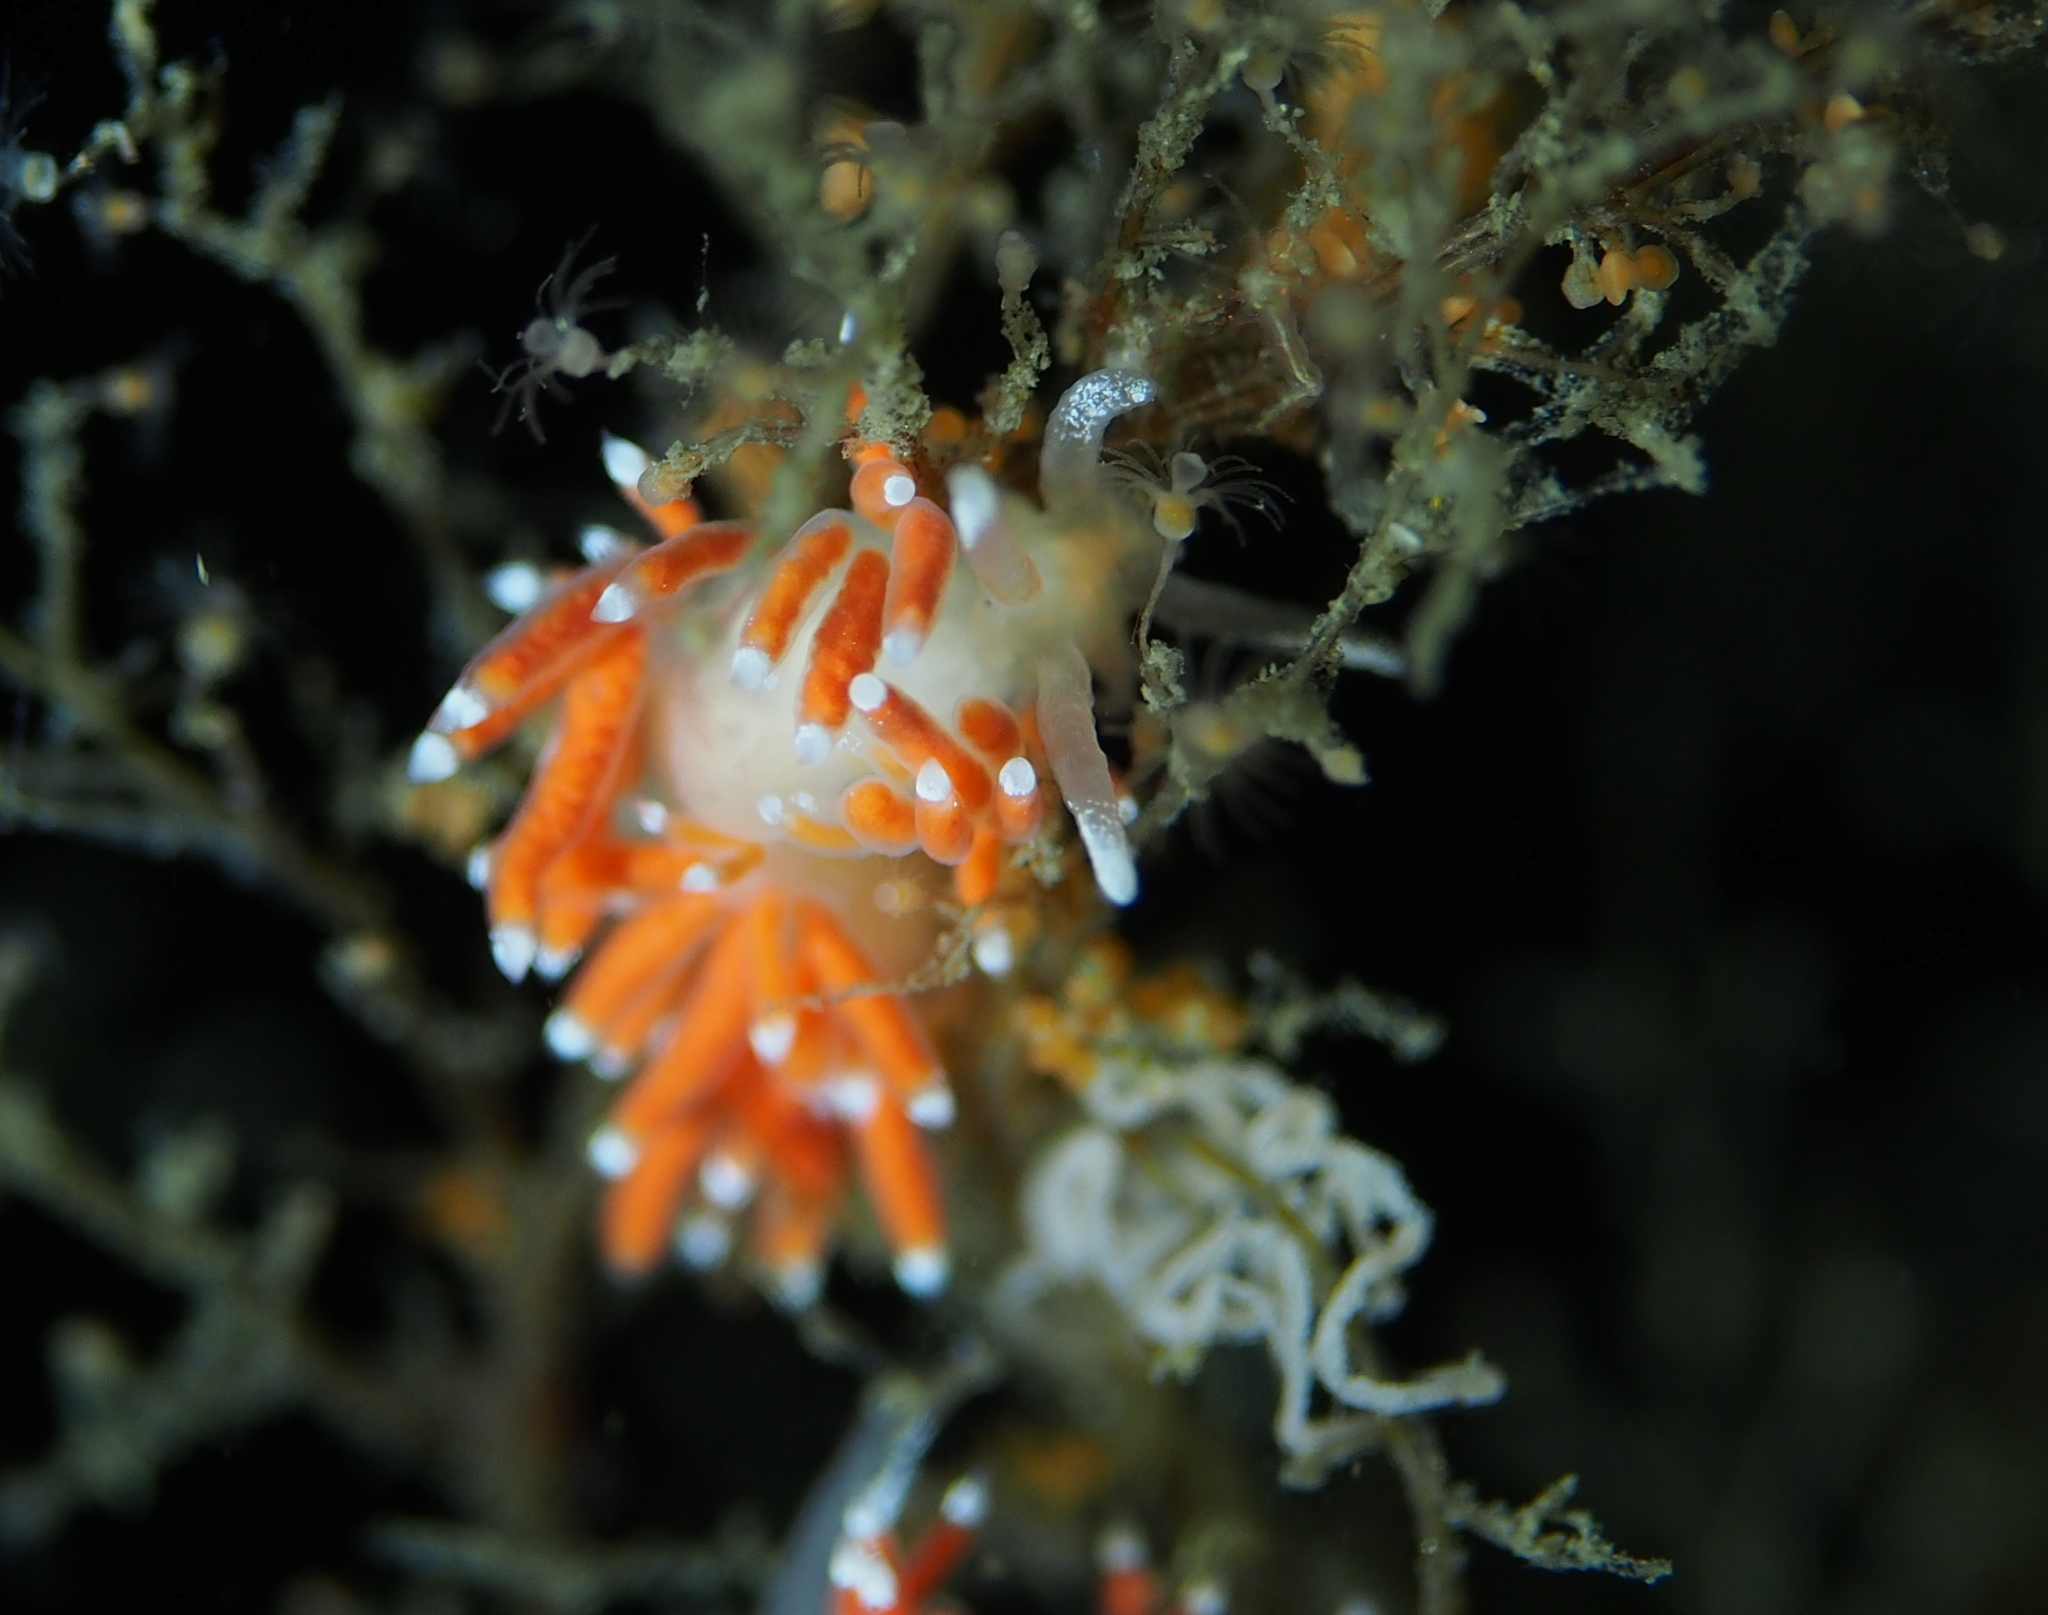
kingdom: Animalia
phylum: Mollusca
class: Gastropoda
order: Nudibranchia
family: Coryphellidae
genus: Coryphella
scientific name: Coryphella gracilis
